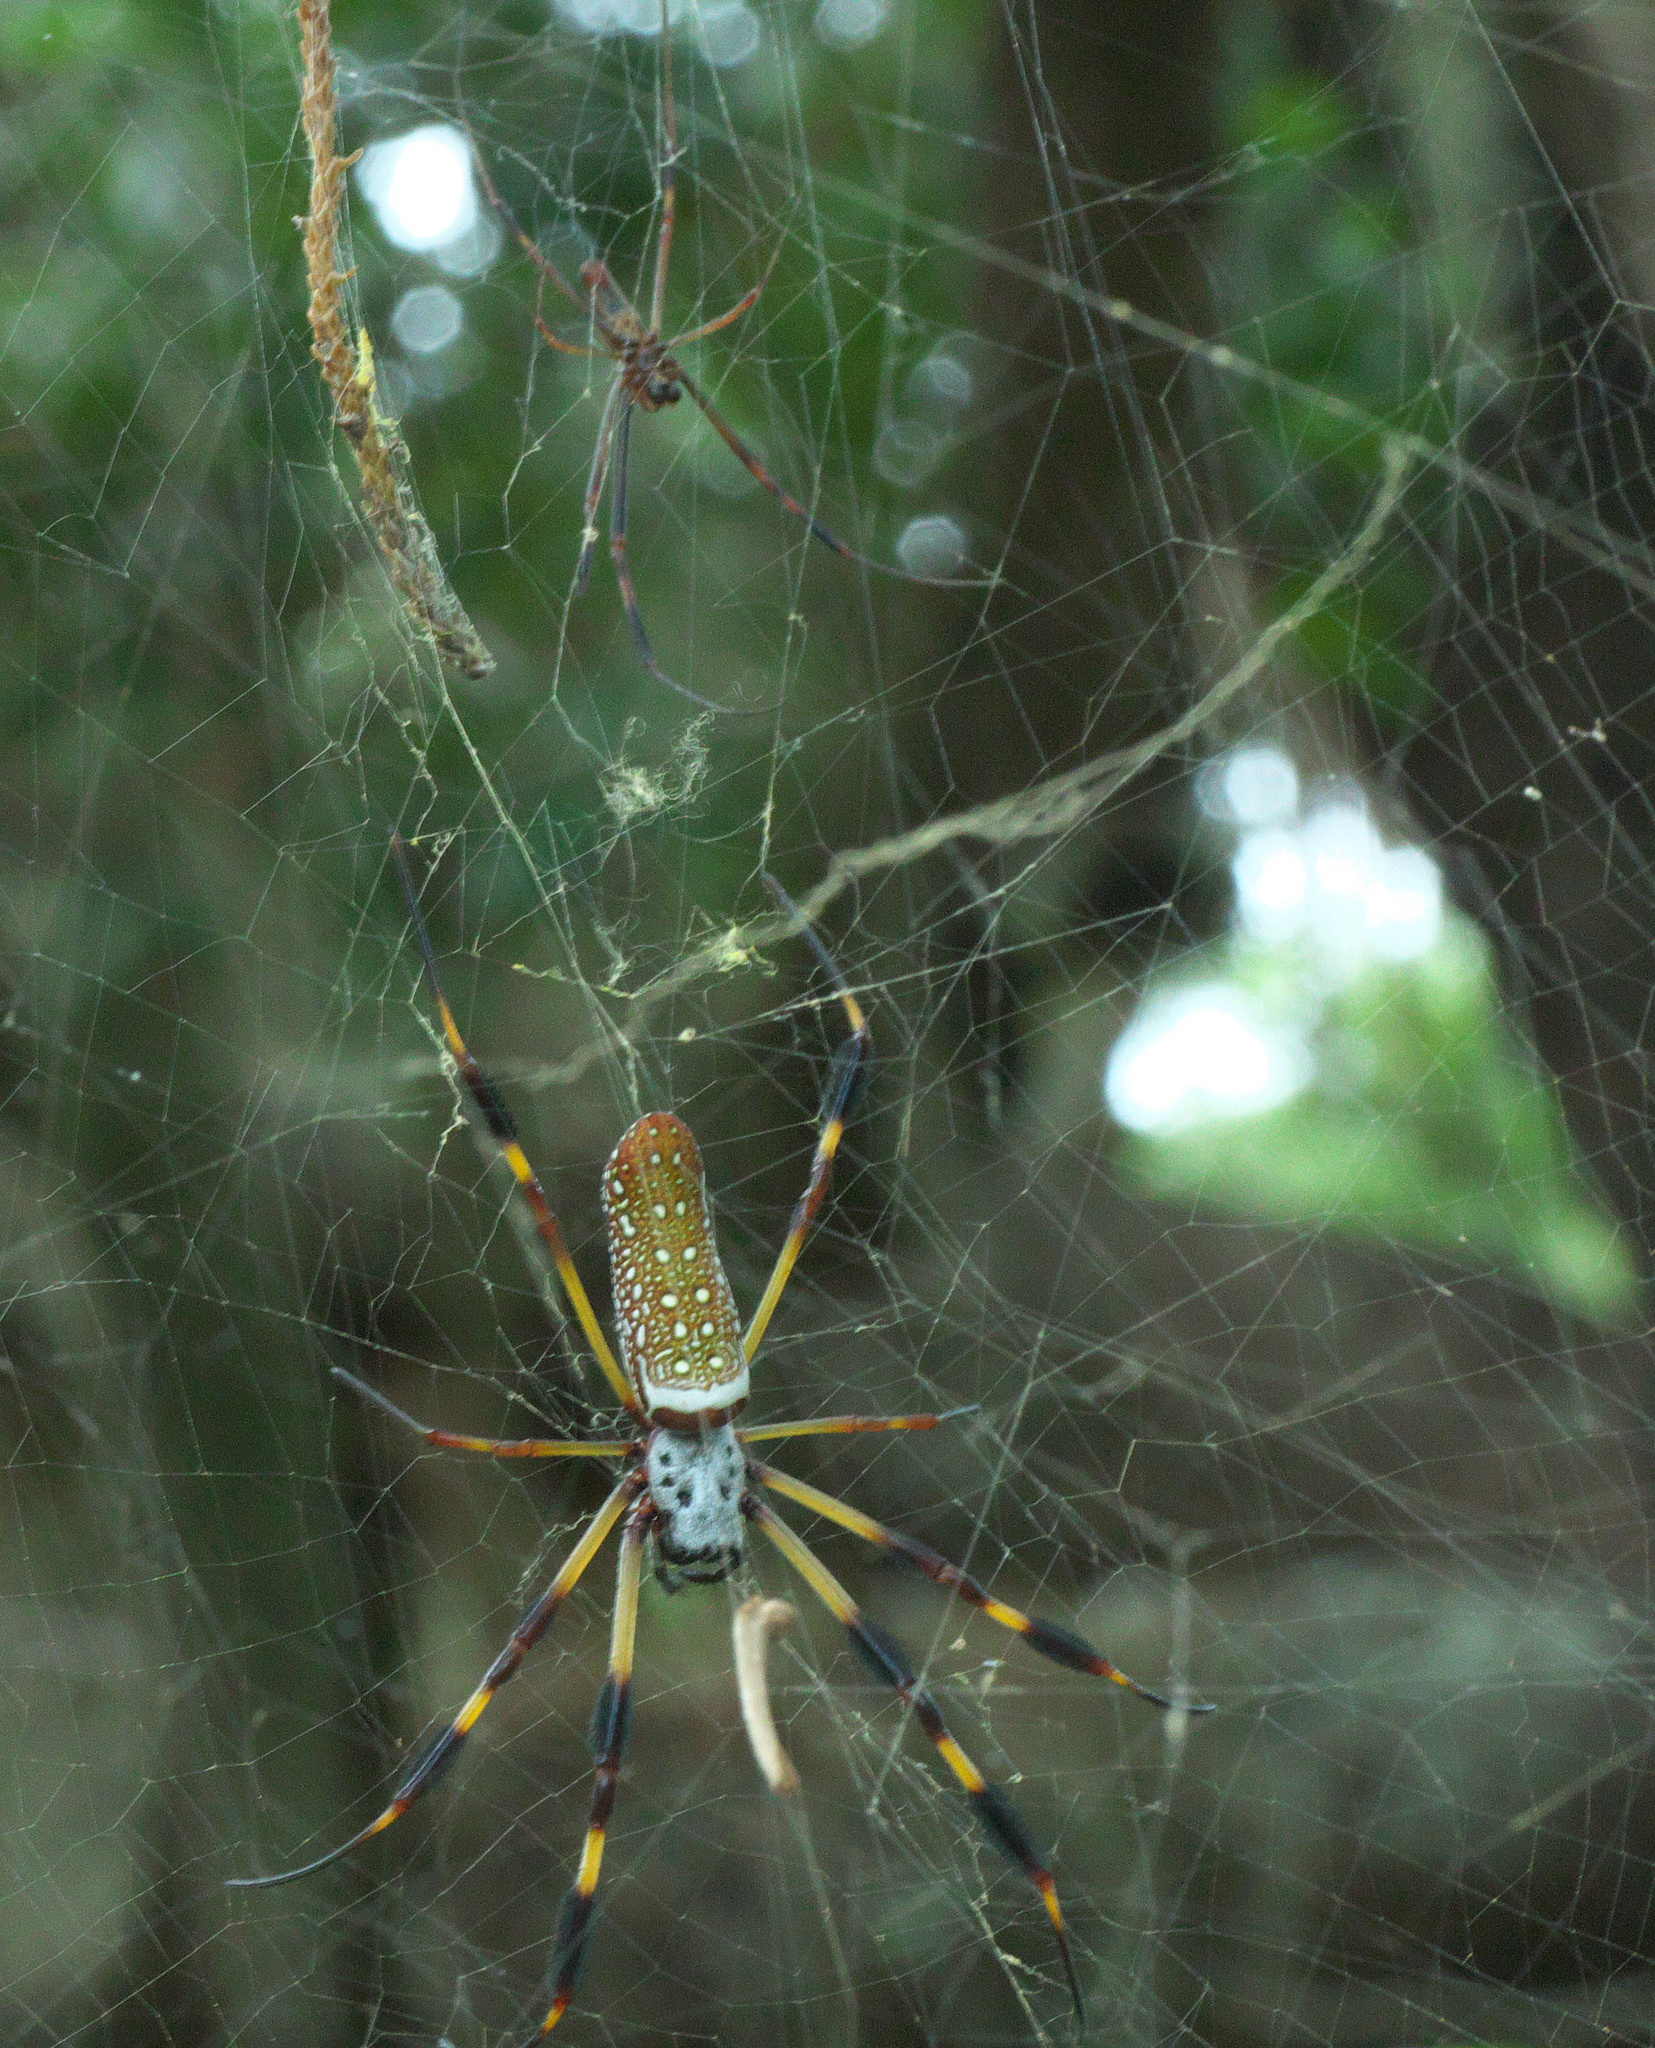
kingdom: Animalia
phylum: Arthropoda
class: Arachnida
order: Araneae
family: Araneidae
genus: Trichonephila
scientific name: Trichonephila clavipes
